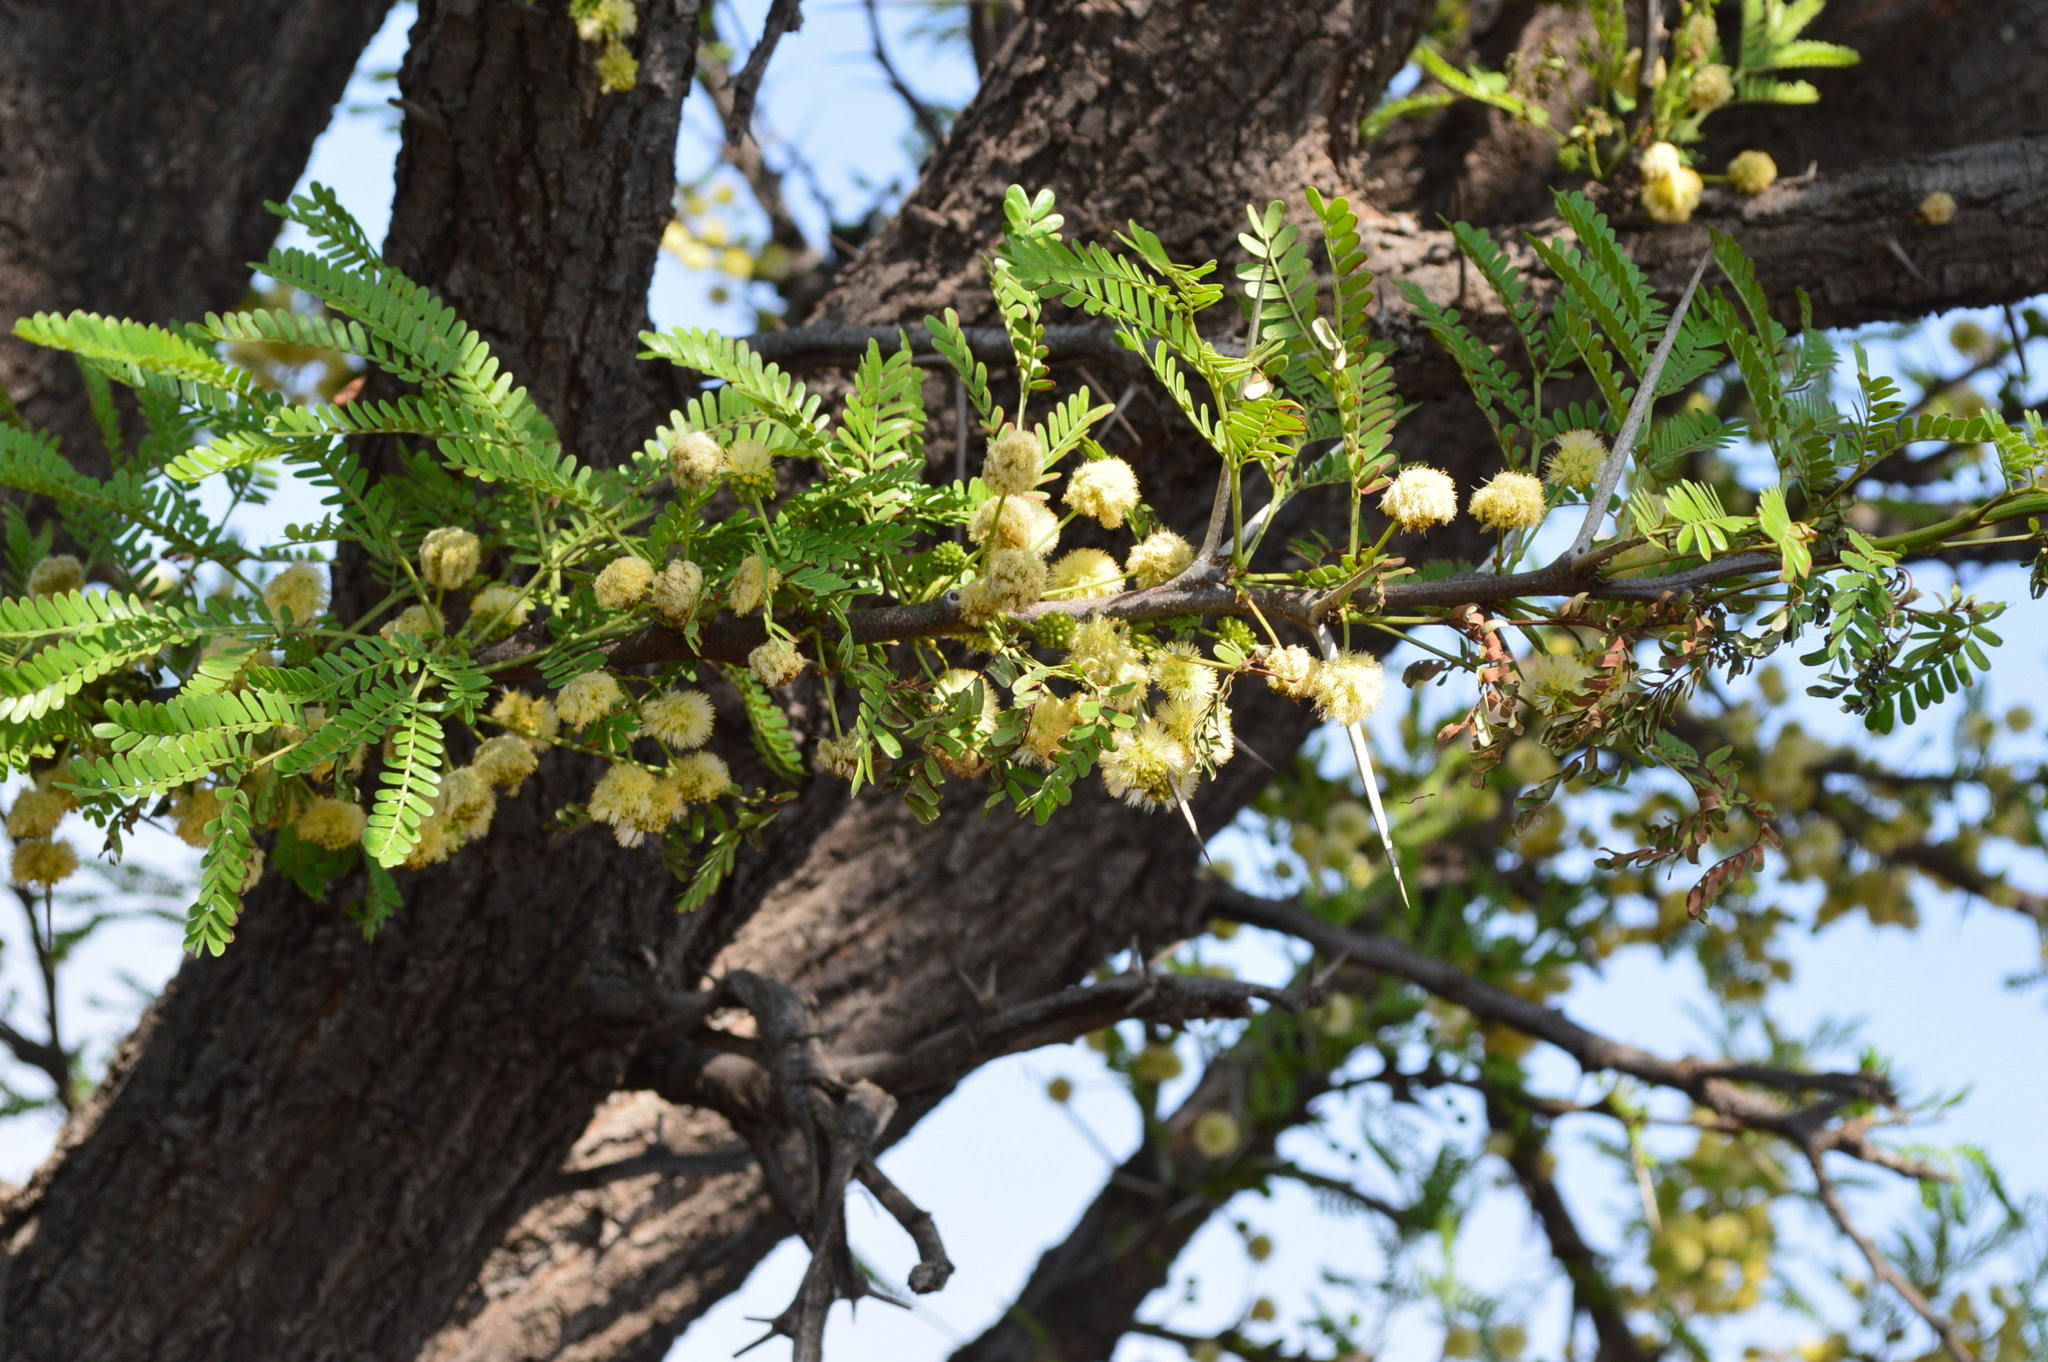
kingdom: Plantae
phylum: Tracheophyta
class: Magnoliopsida
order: Fabales
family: Fabaceae
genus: Vachellia
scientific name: Vachellia robusta
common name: Ankle thorn
